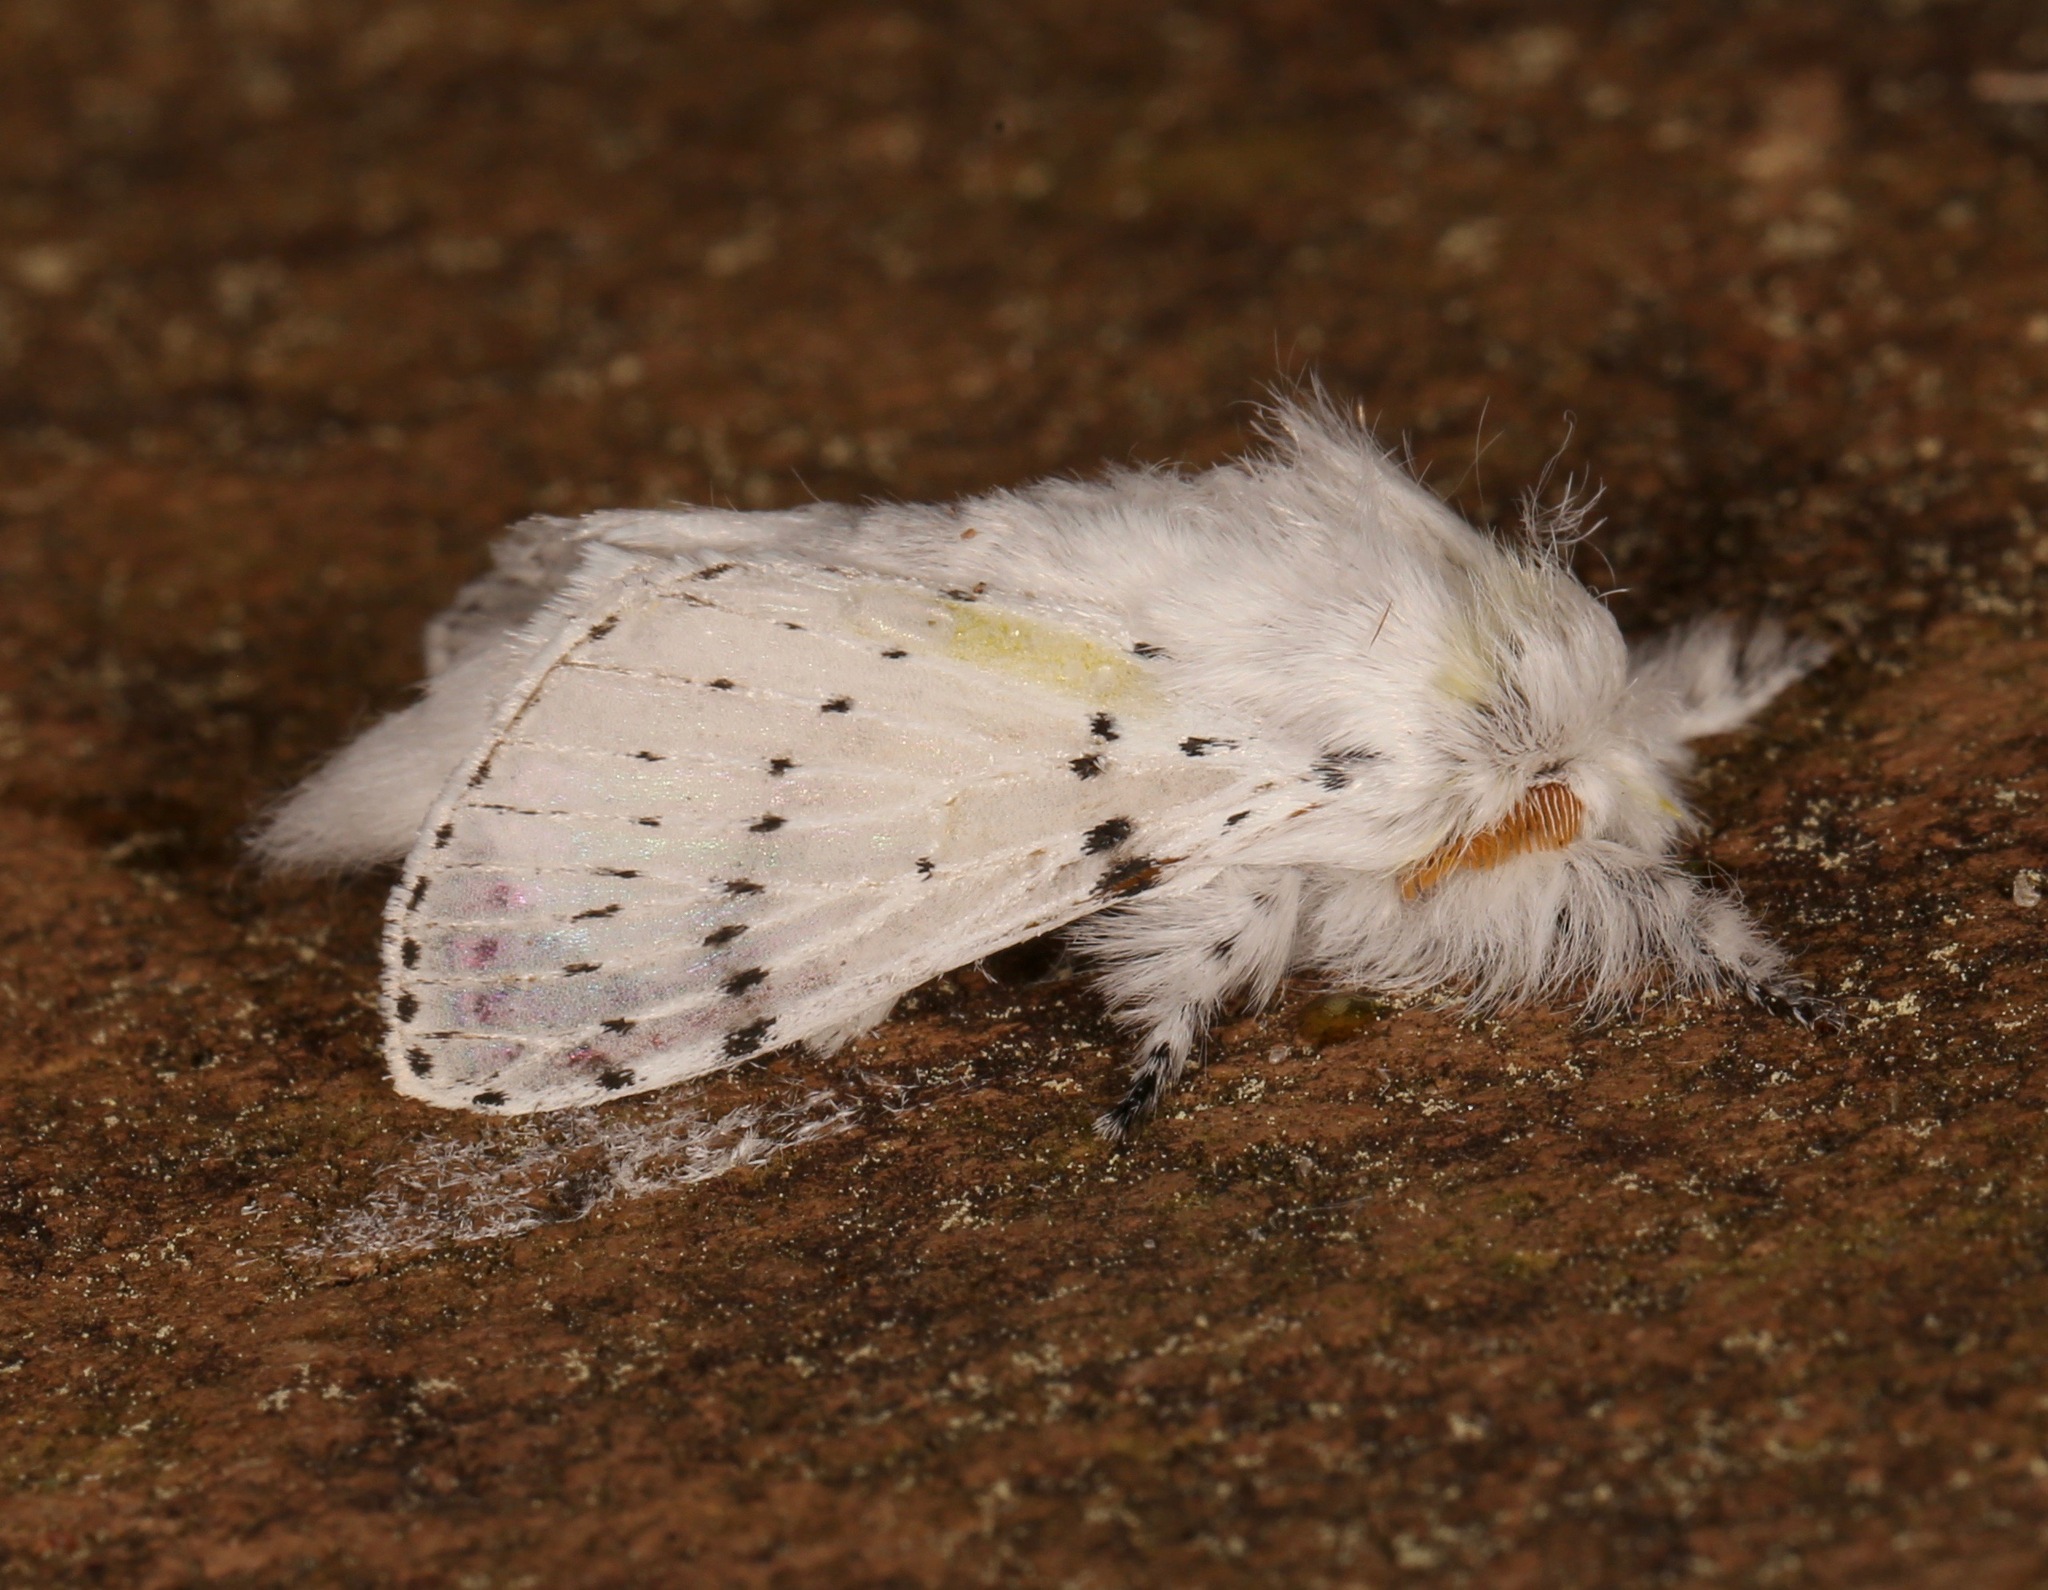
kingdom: Animalia
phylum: Arthropoda
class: Insecta
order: Lepidoptera
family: Lasiocampidae
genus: Artace
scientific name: Artace cribrarius
